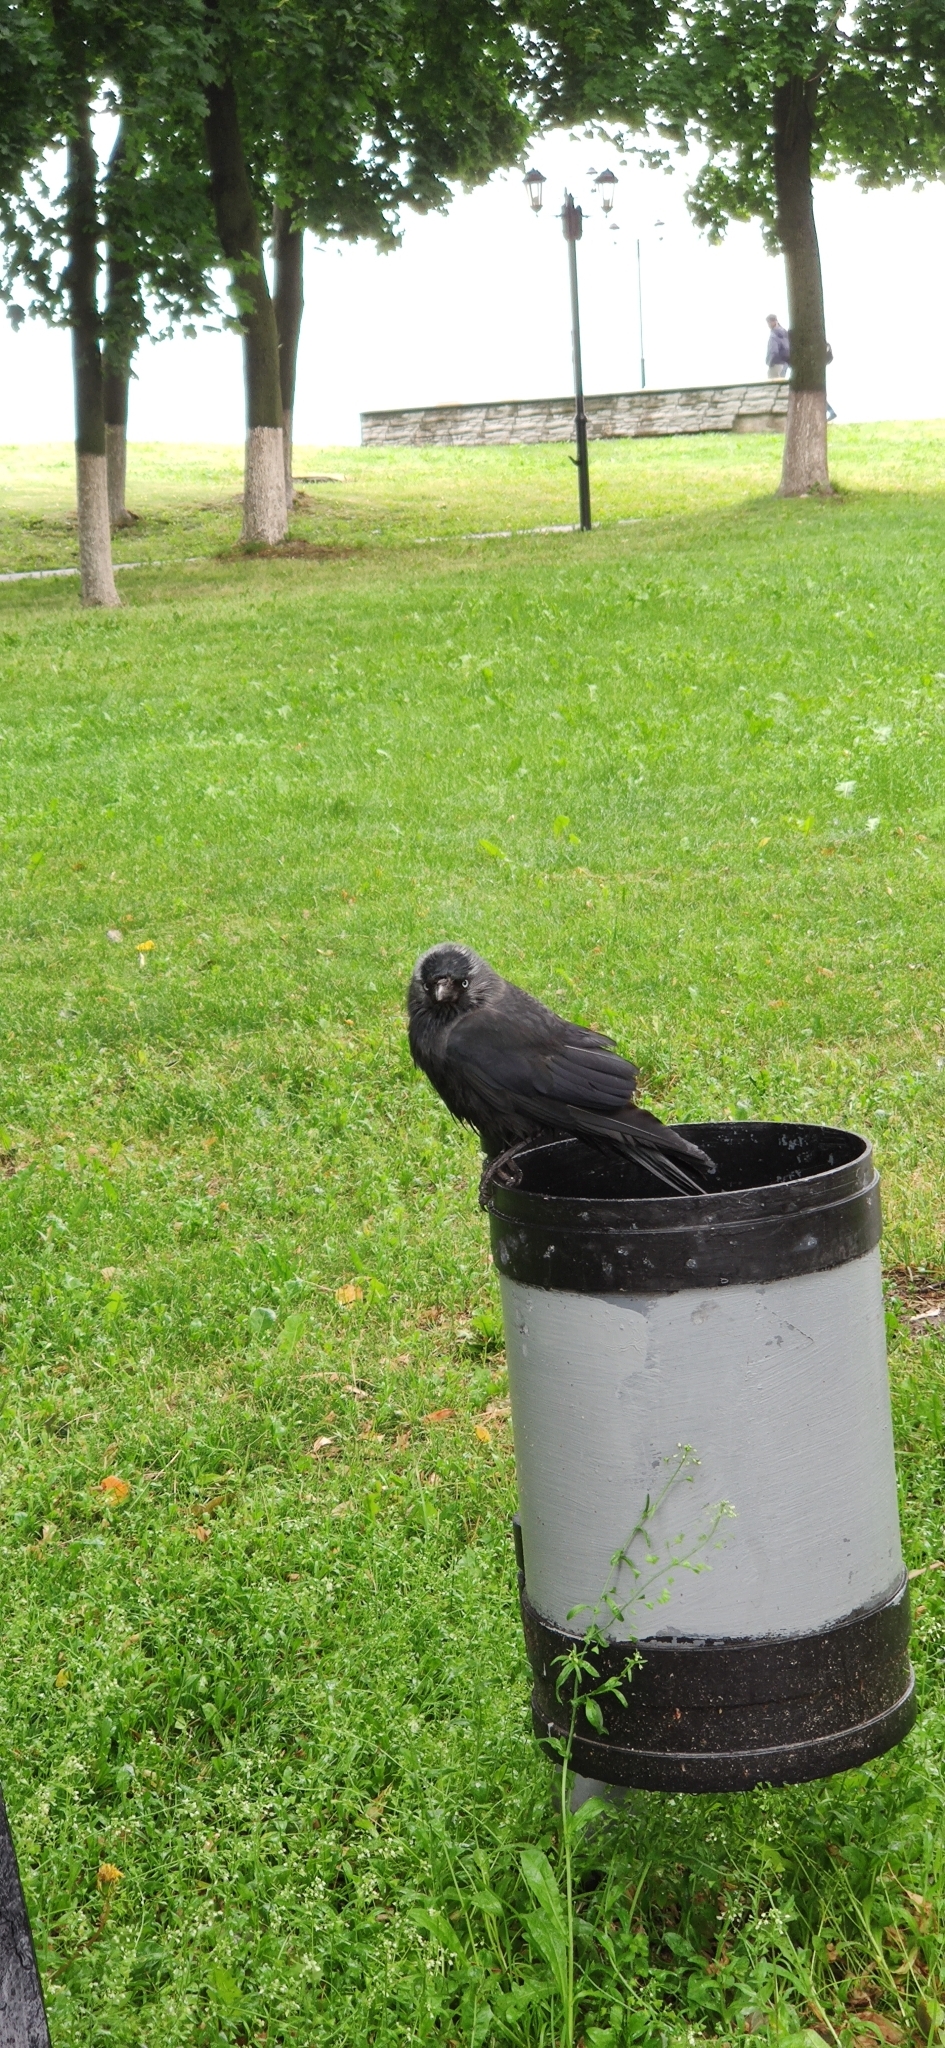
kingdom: Animalia
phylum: Chordata
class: Aves
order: Passeriformes
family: Corvidae
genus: Coloeus
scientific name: Coloeus monedula
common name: Western jackdaw
